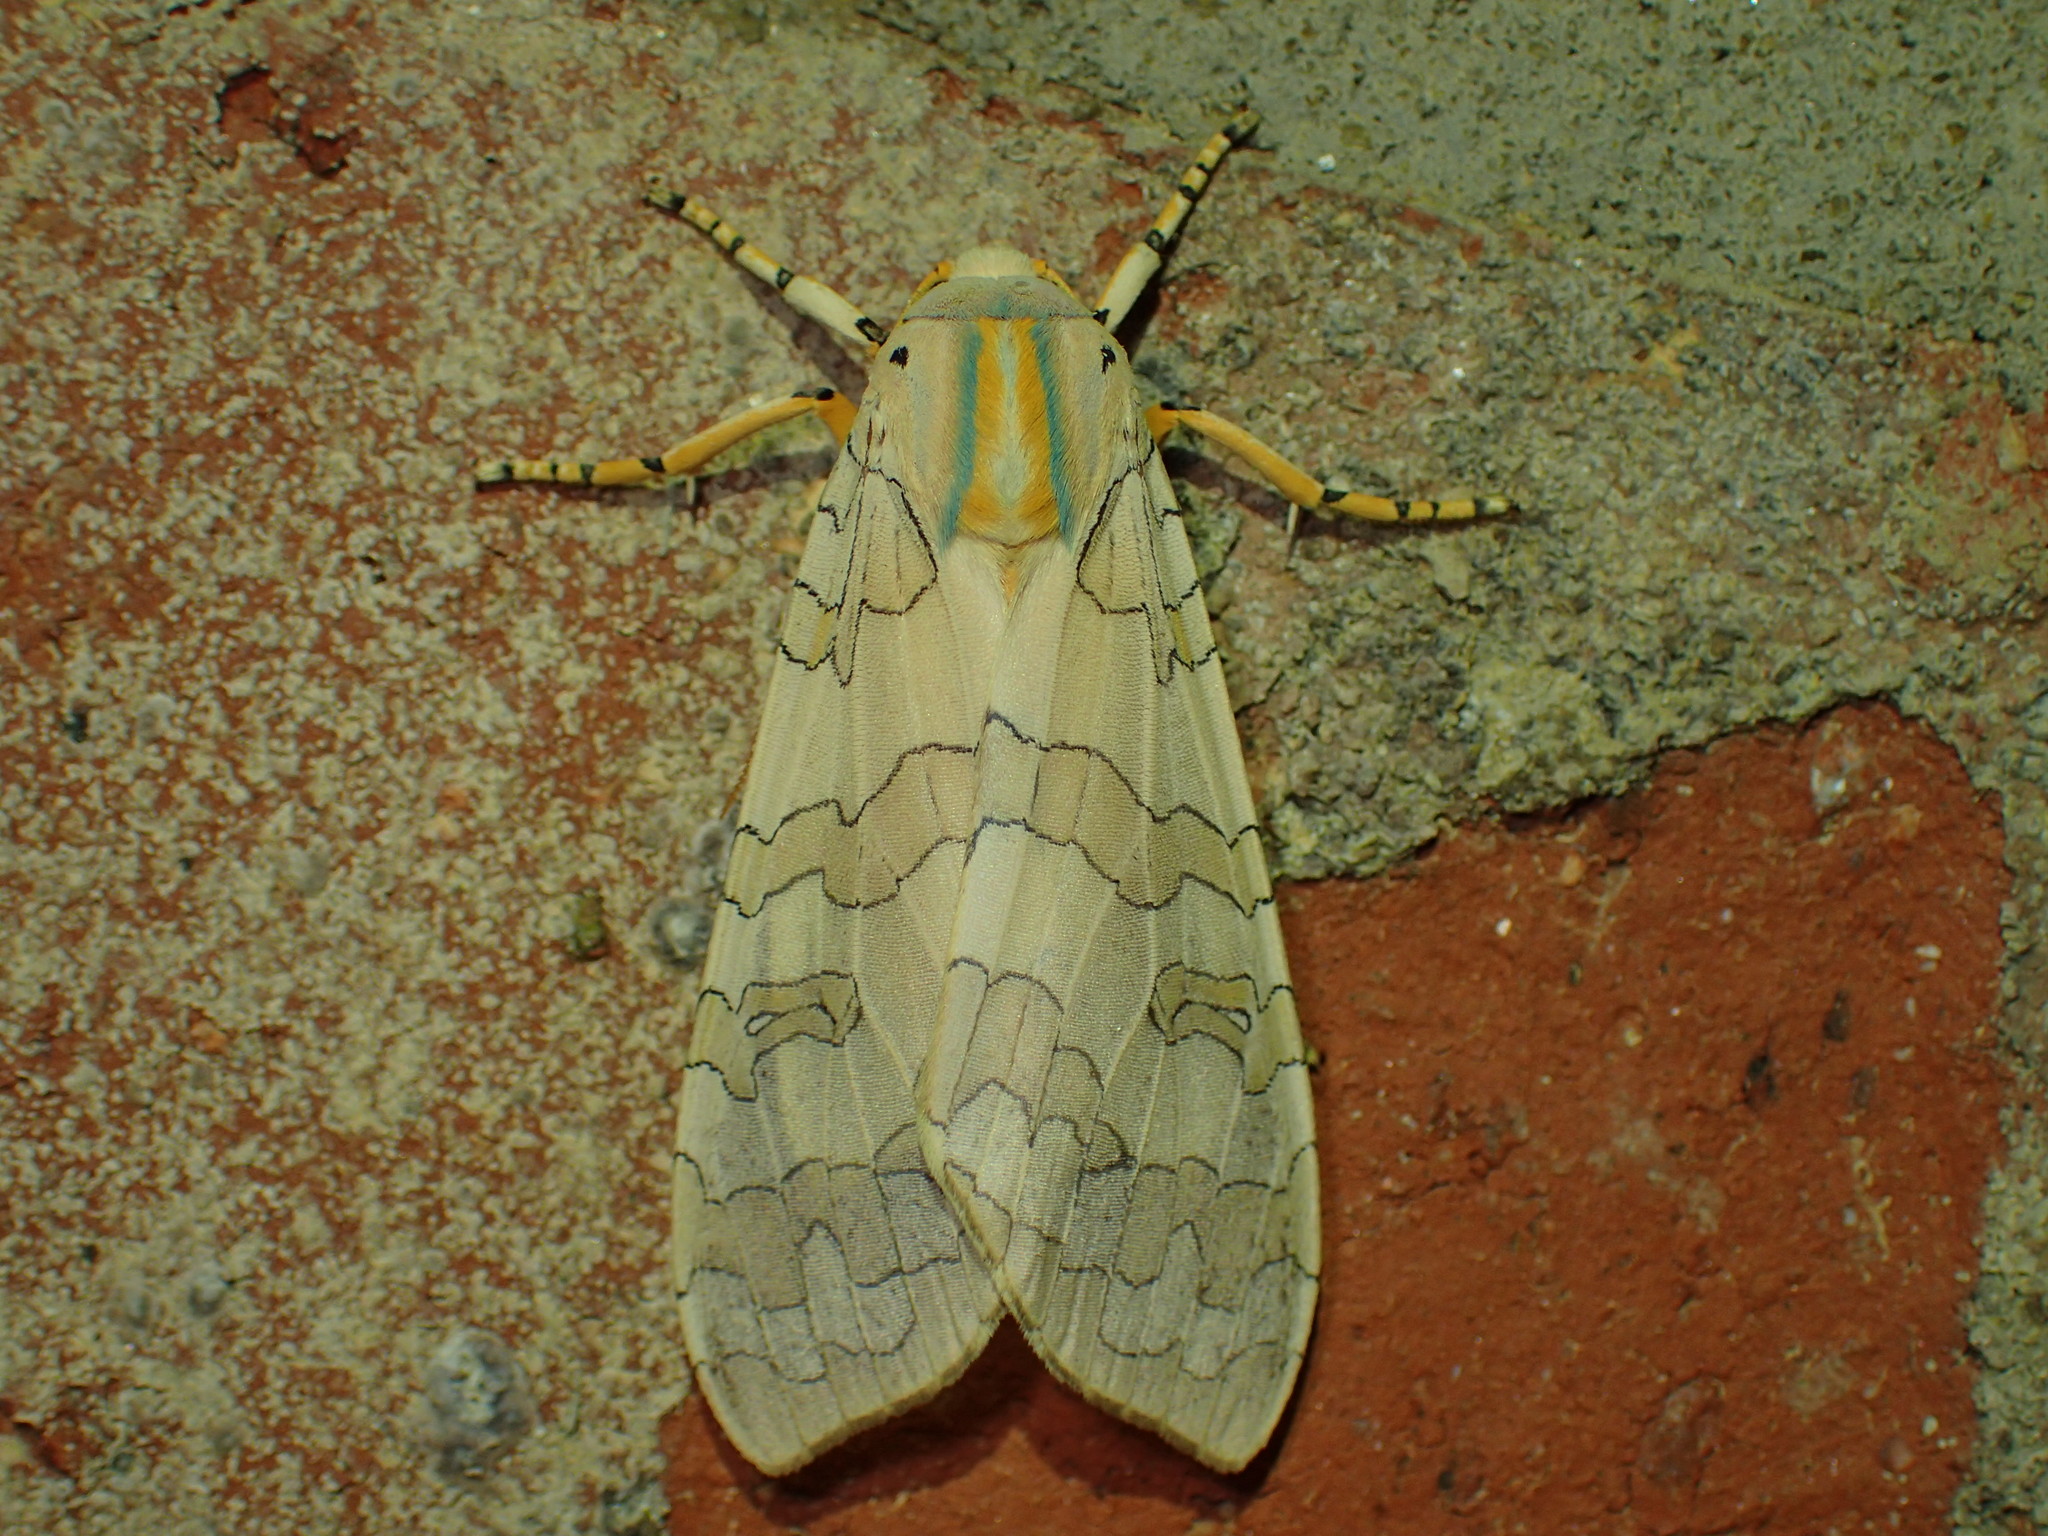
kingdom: Animalia
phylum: Arthropoda
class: Insecta
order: Lepidoptera
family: Erebidae
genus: Halysidota
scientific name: Halysidota
